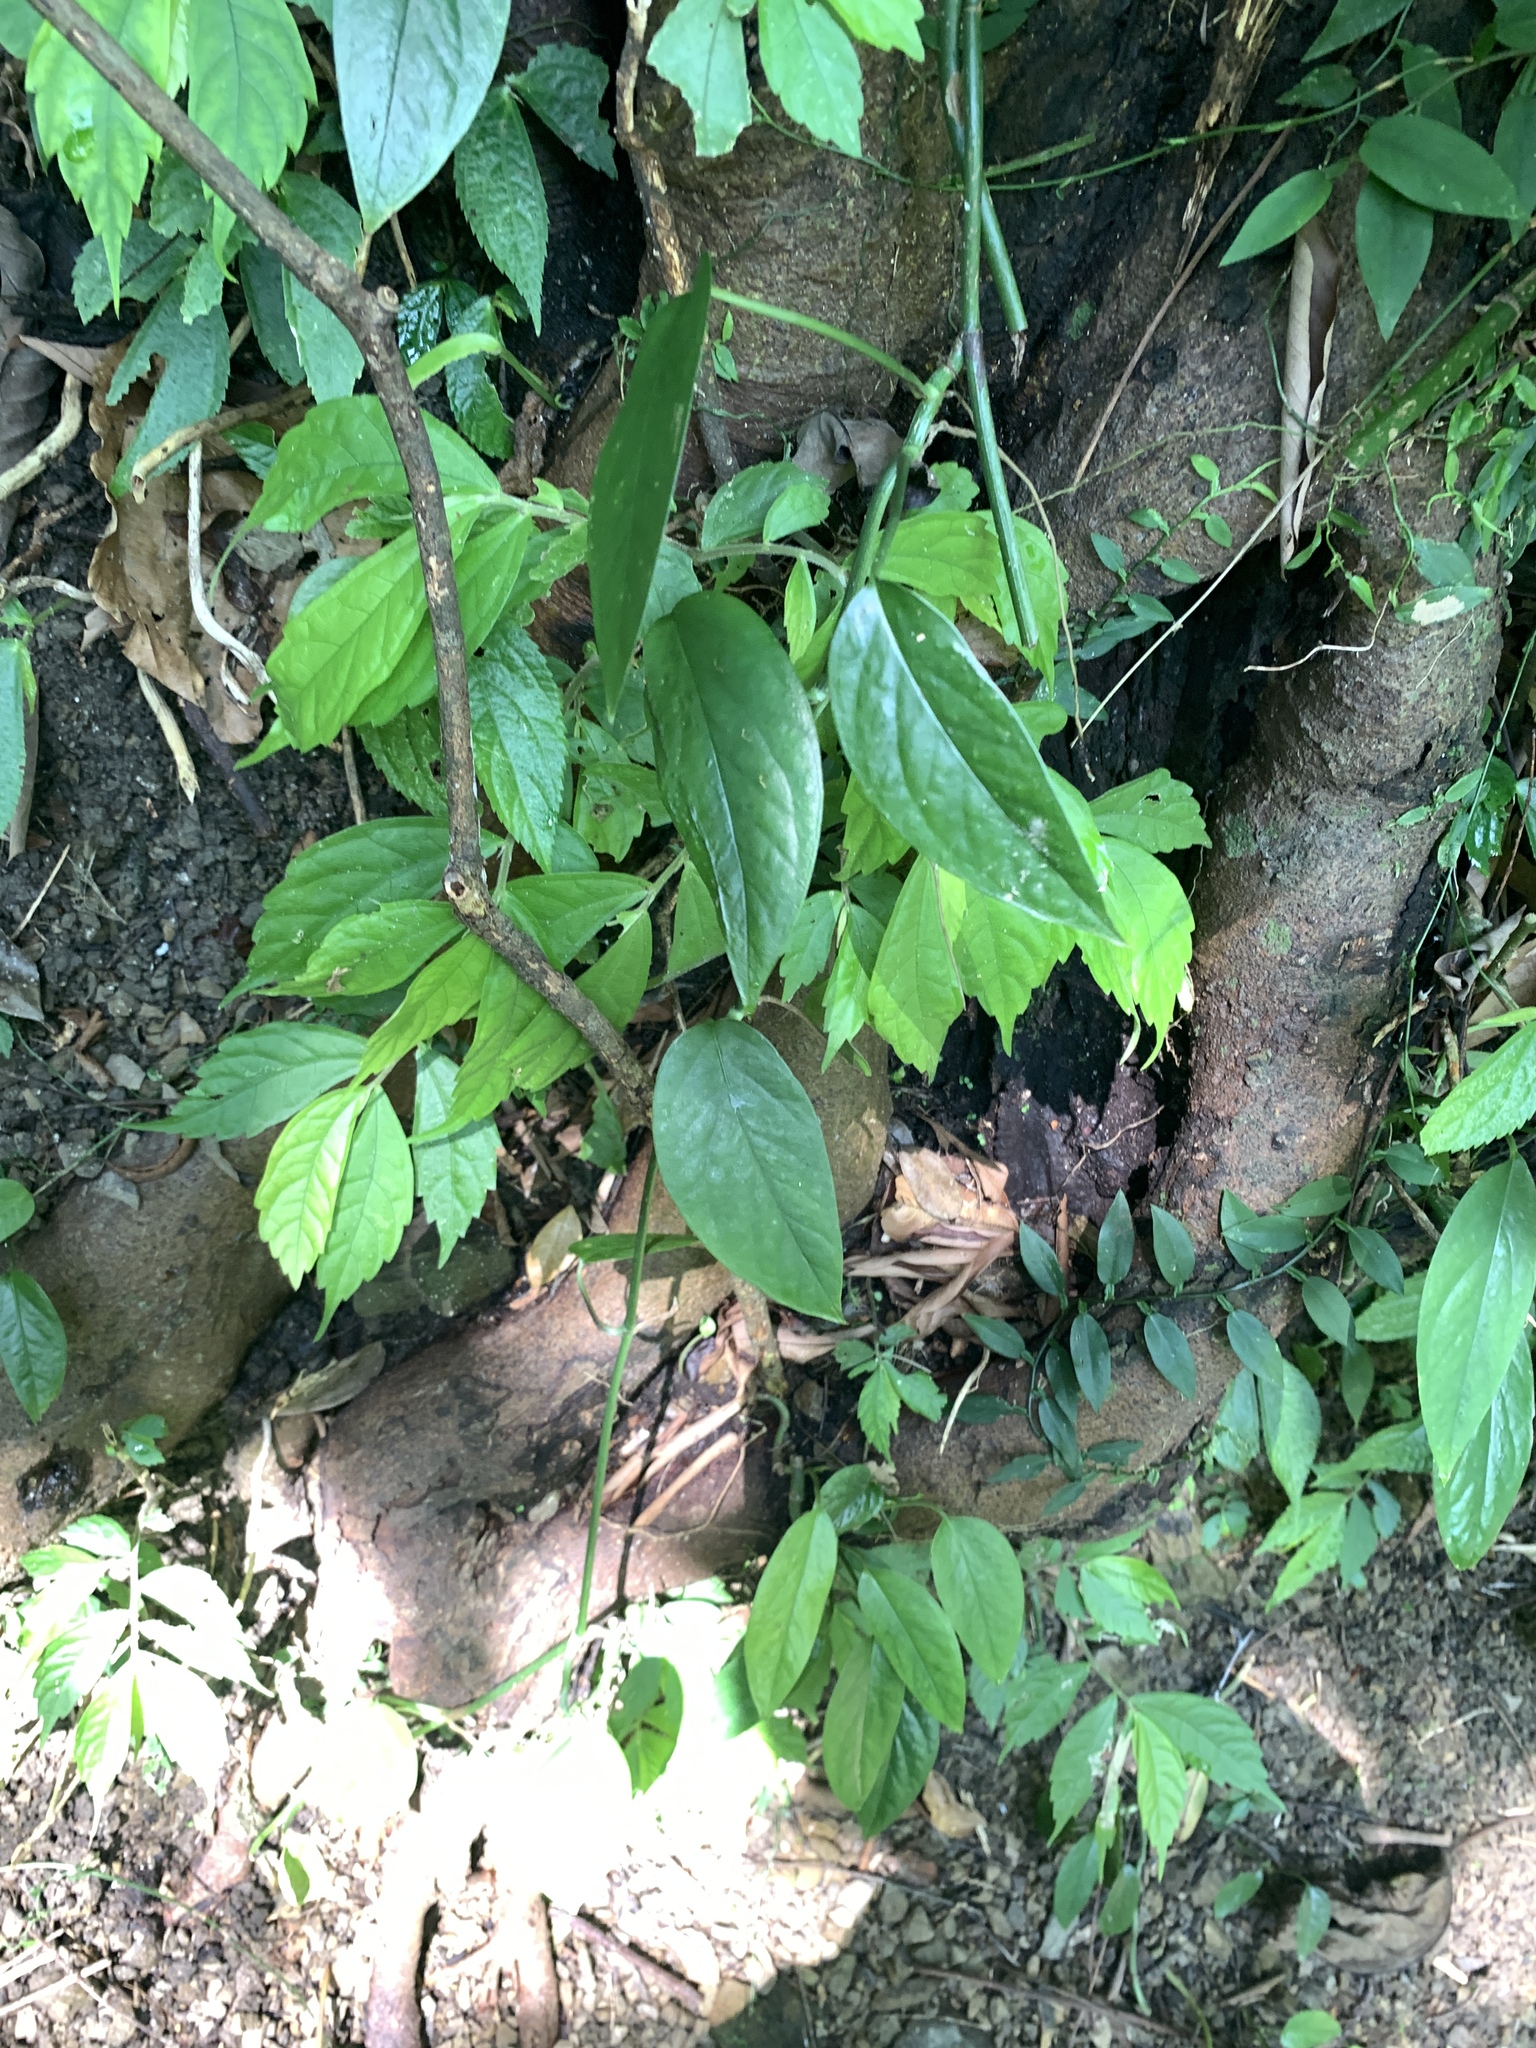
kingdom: Plantae
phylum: Tracheophyta
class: Liliopsida
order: Alismatales
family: Araceae
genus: Epipremnum
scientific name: Epipremnum pinnatum
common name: Centipede tongavine
